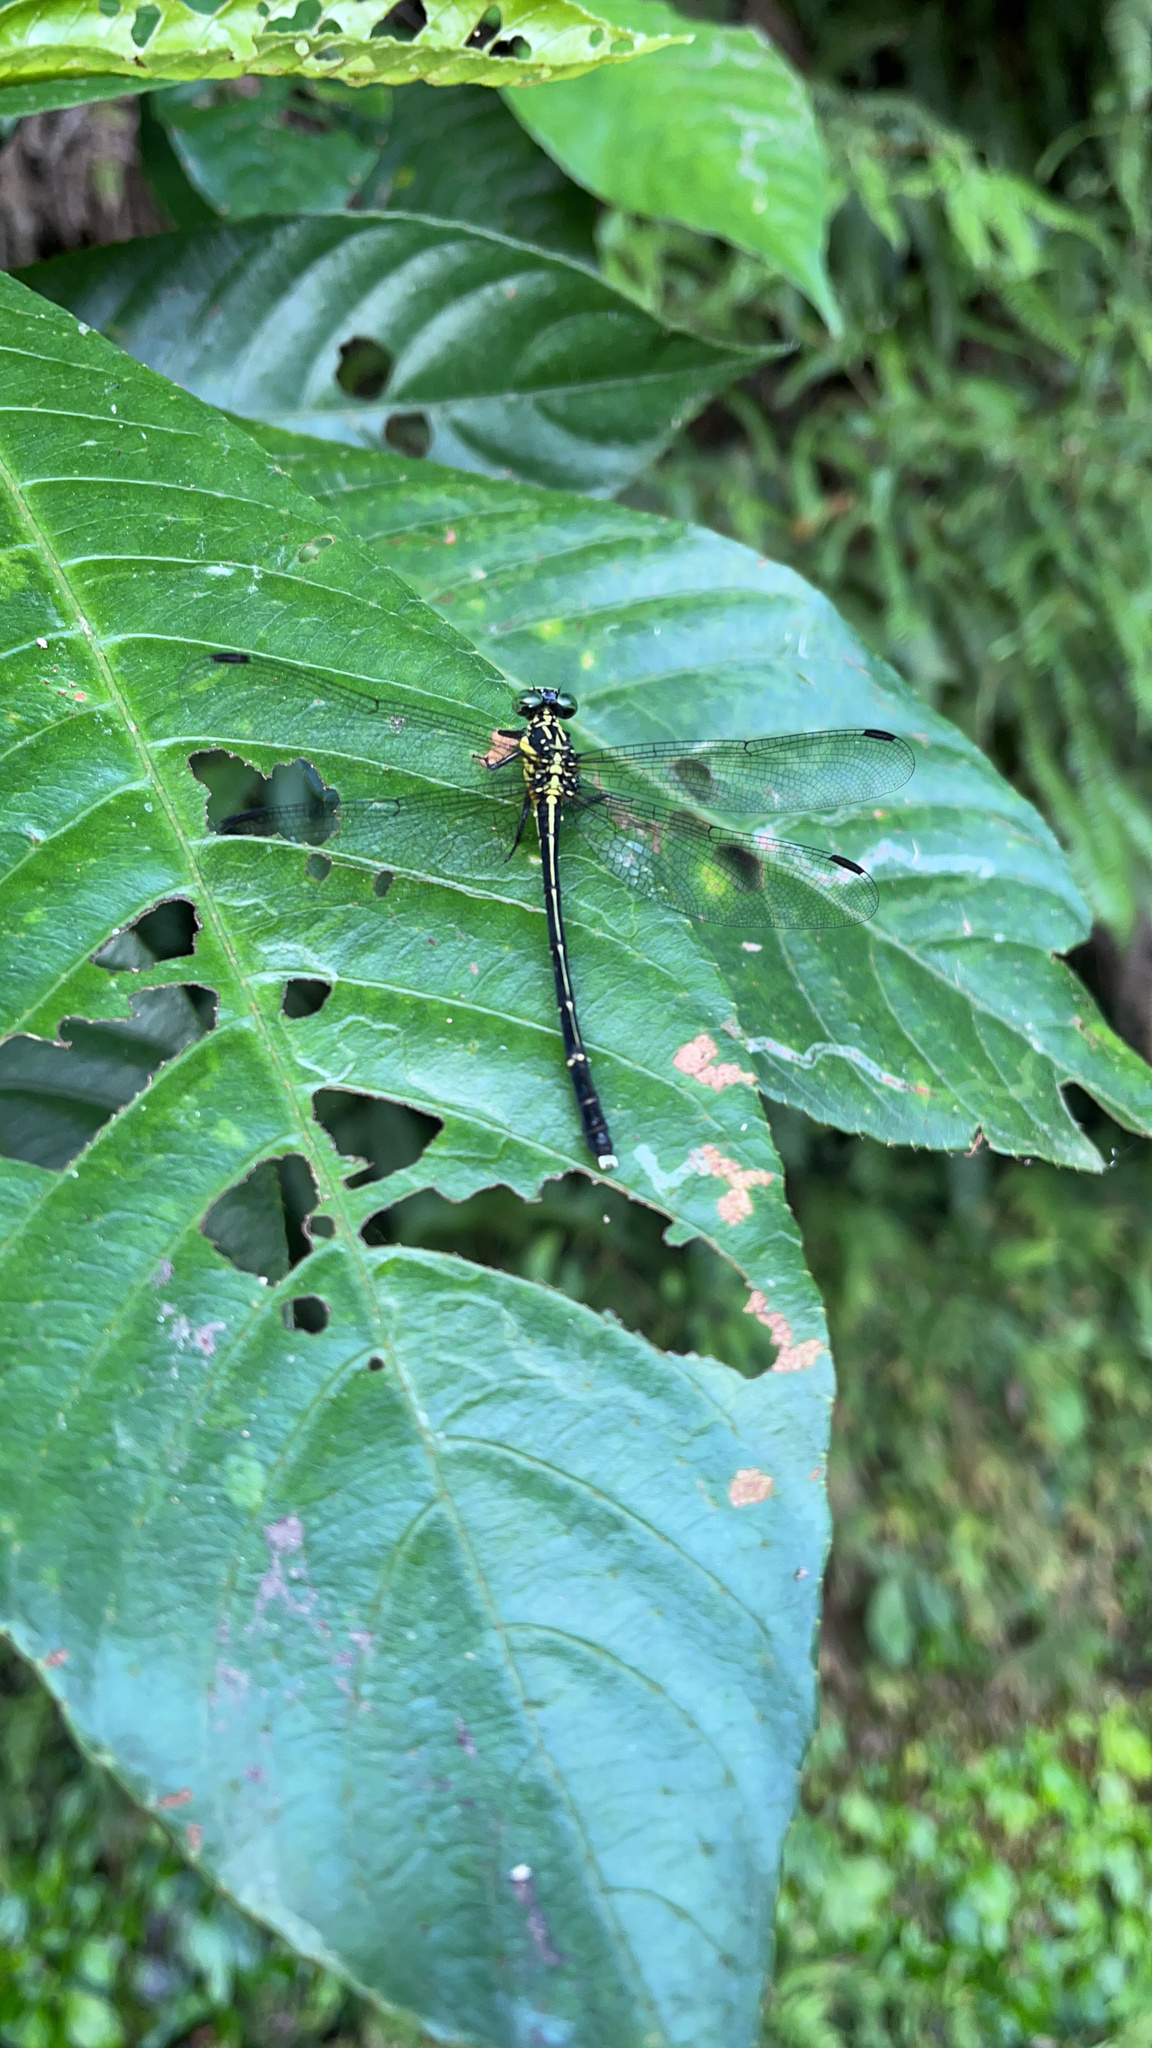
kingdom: Animalia
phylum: Arthropoda
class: Insecta
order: Odonata
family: Gomphidae
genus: Leptogomphus
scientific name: Leptogomphus sauteri
